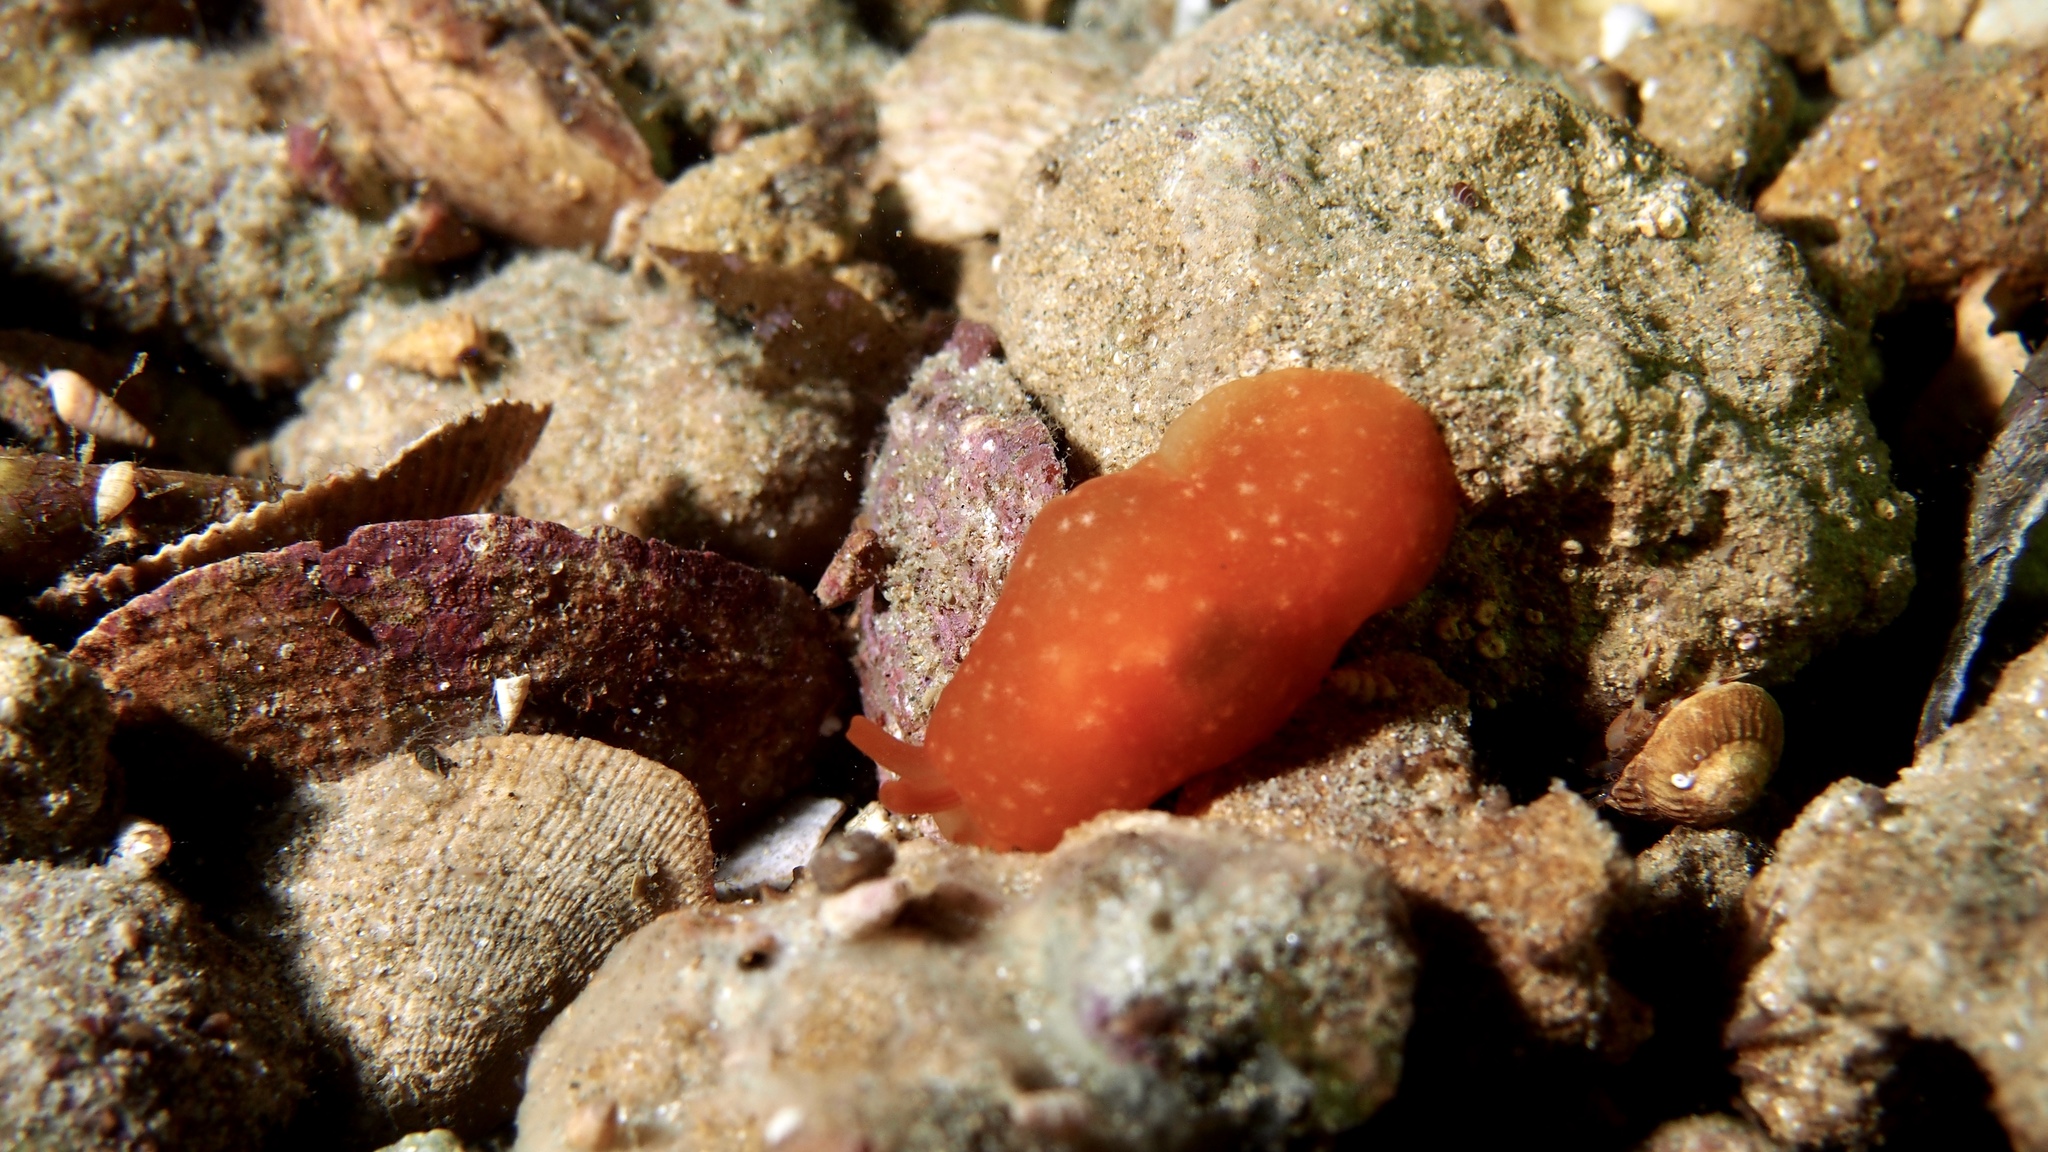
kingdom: Animalia
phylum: Mollusca
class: Gastropoda
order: Pleurobranchida
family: Pleurobranchidae
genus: Berthellina
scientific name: Berthellina citrina
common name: Lemon pleurobranch
